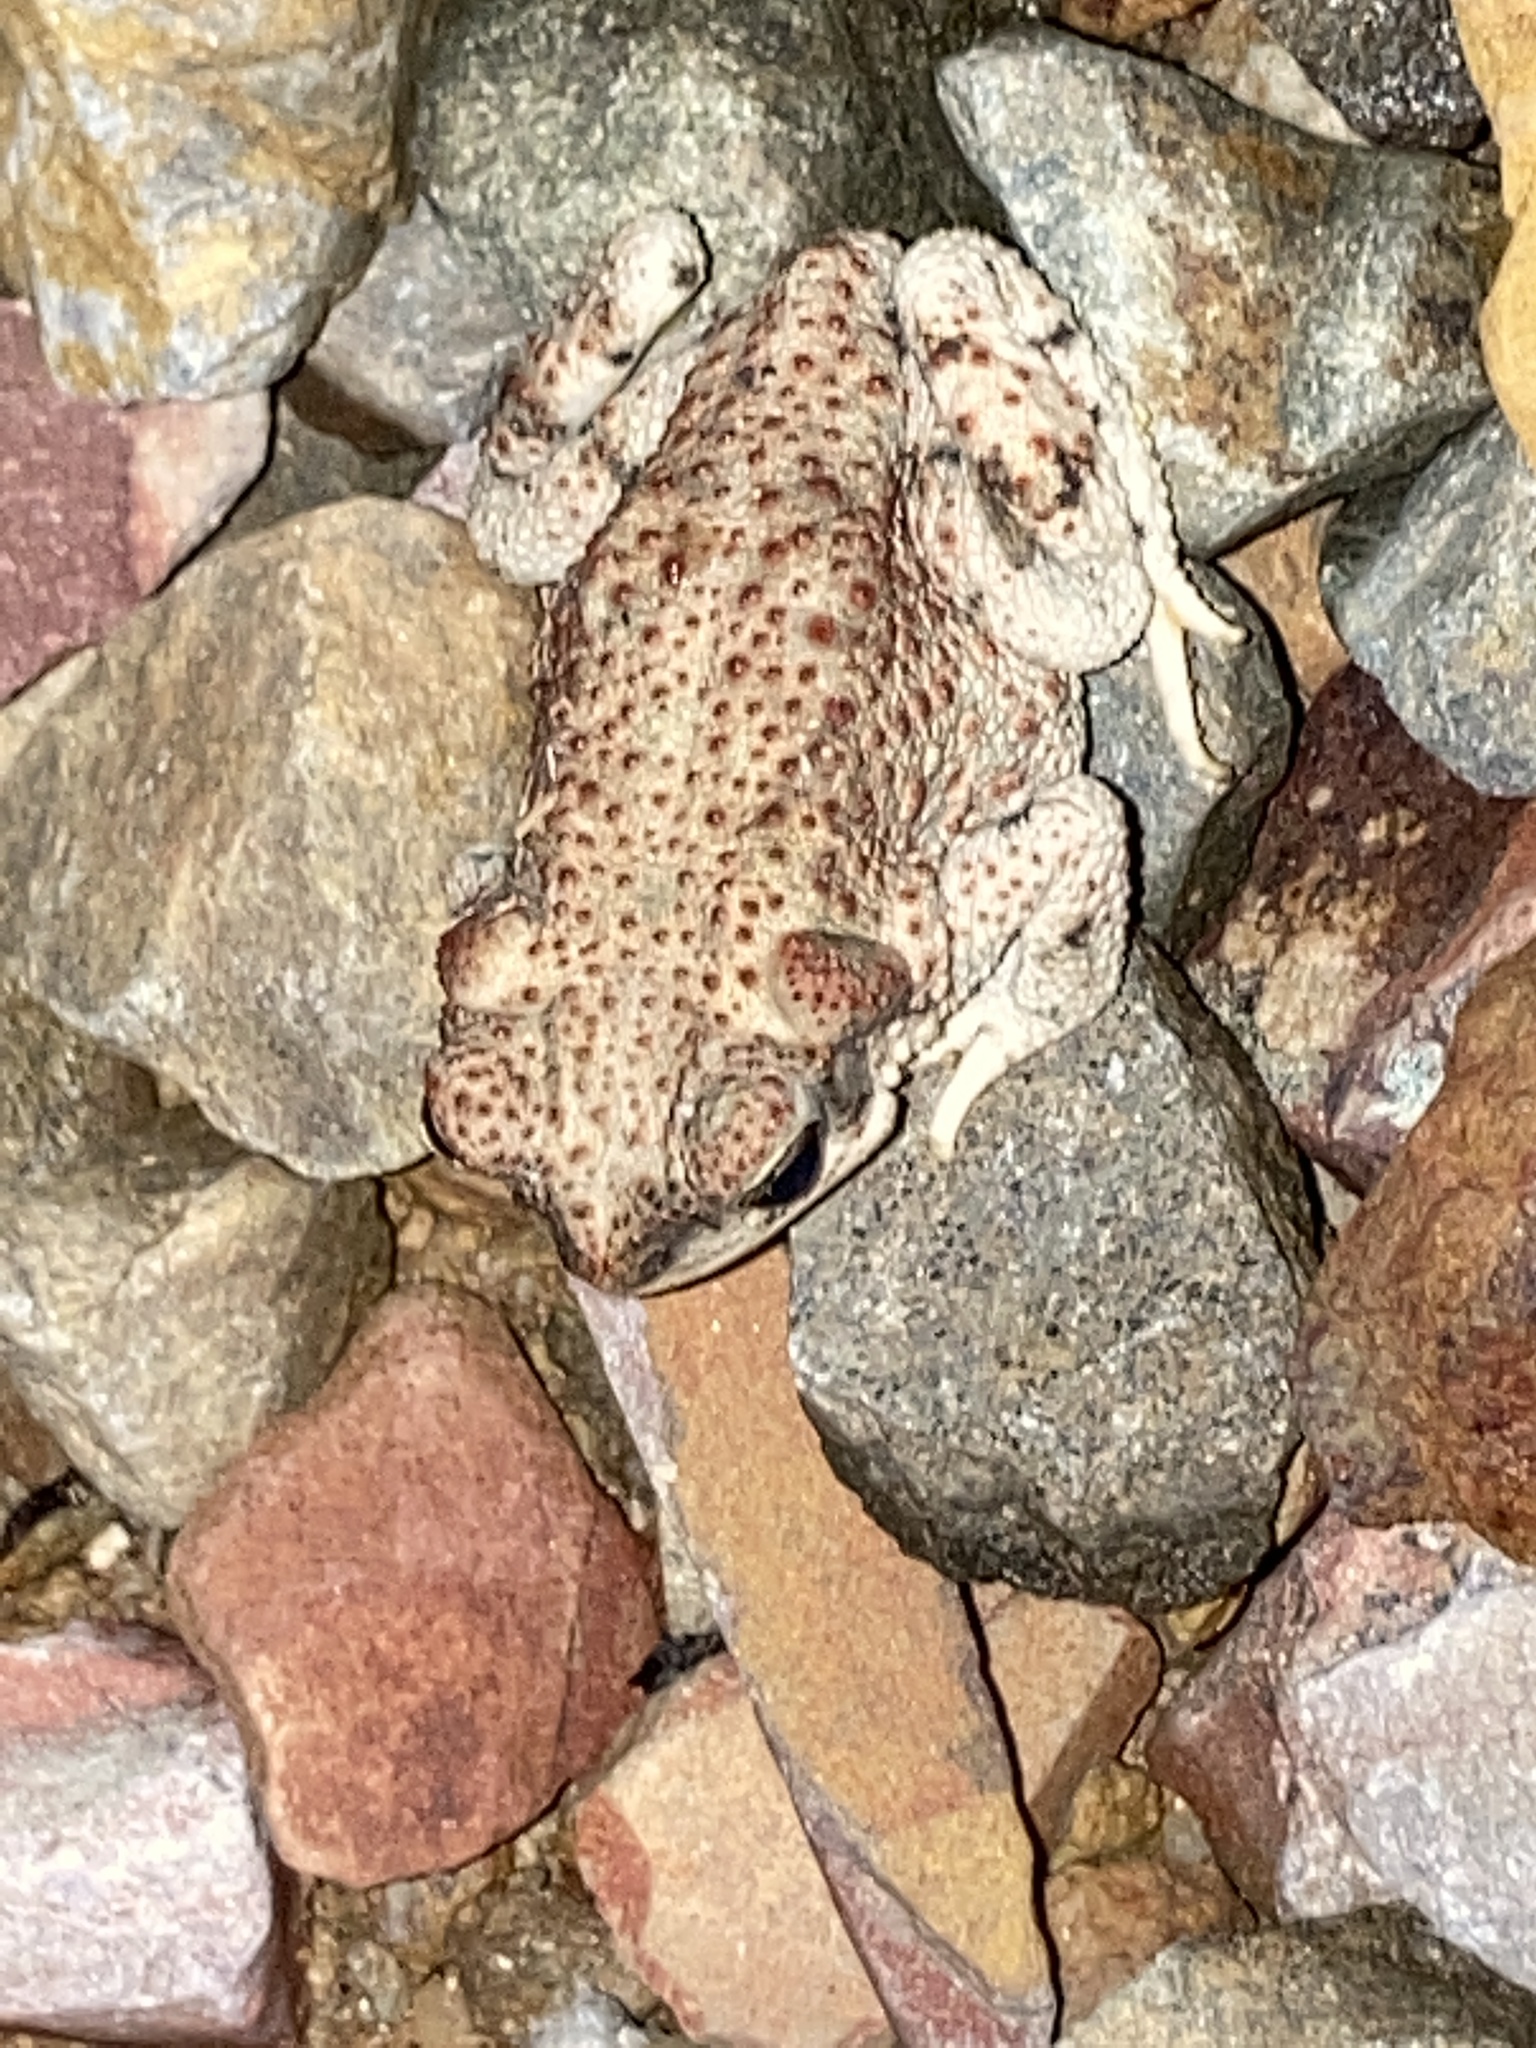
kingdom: Animalia
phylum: Chordata
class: Amphibia
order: Anura
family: Bufonidae
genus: Anaxyrus
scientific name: Anaxyrus punctatus
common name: Red-spotted toad
